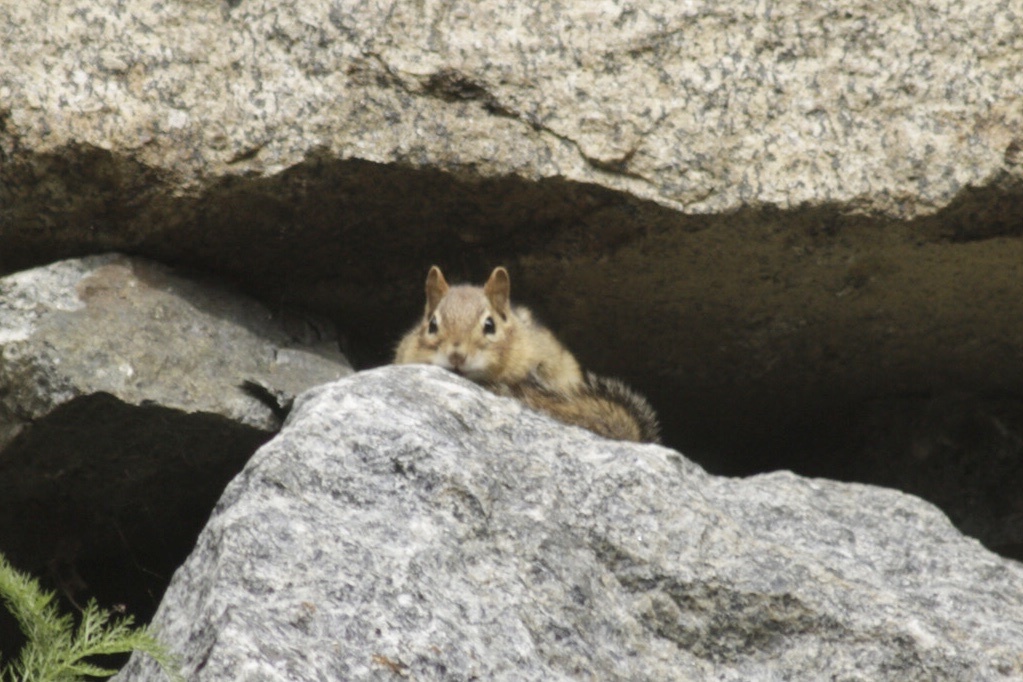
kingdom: Animalia
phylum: Chordata
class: Mammalia
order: Rodentia
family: Sciuridae
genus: Tamias
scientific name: Tamias striatus
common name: Eastern chipmunk
